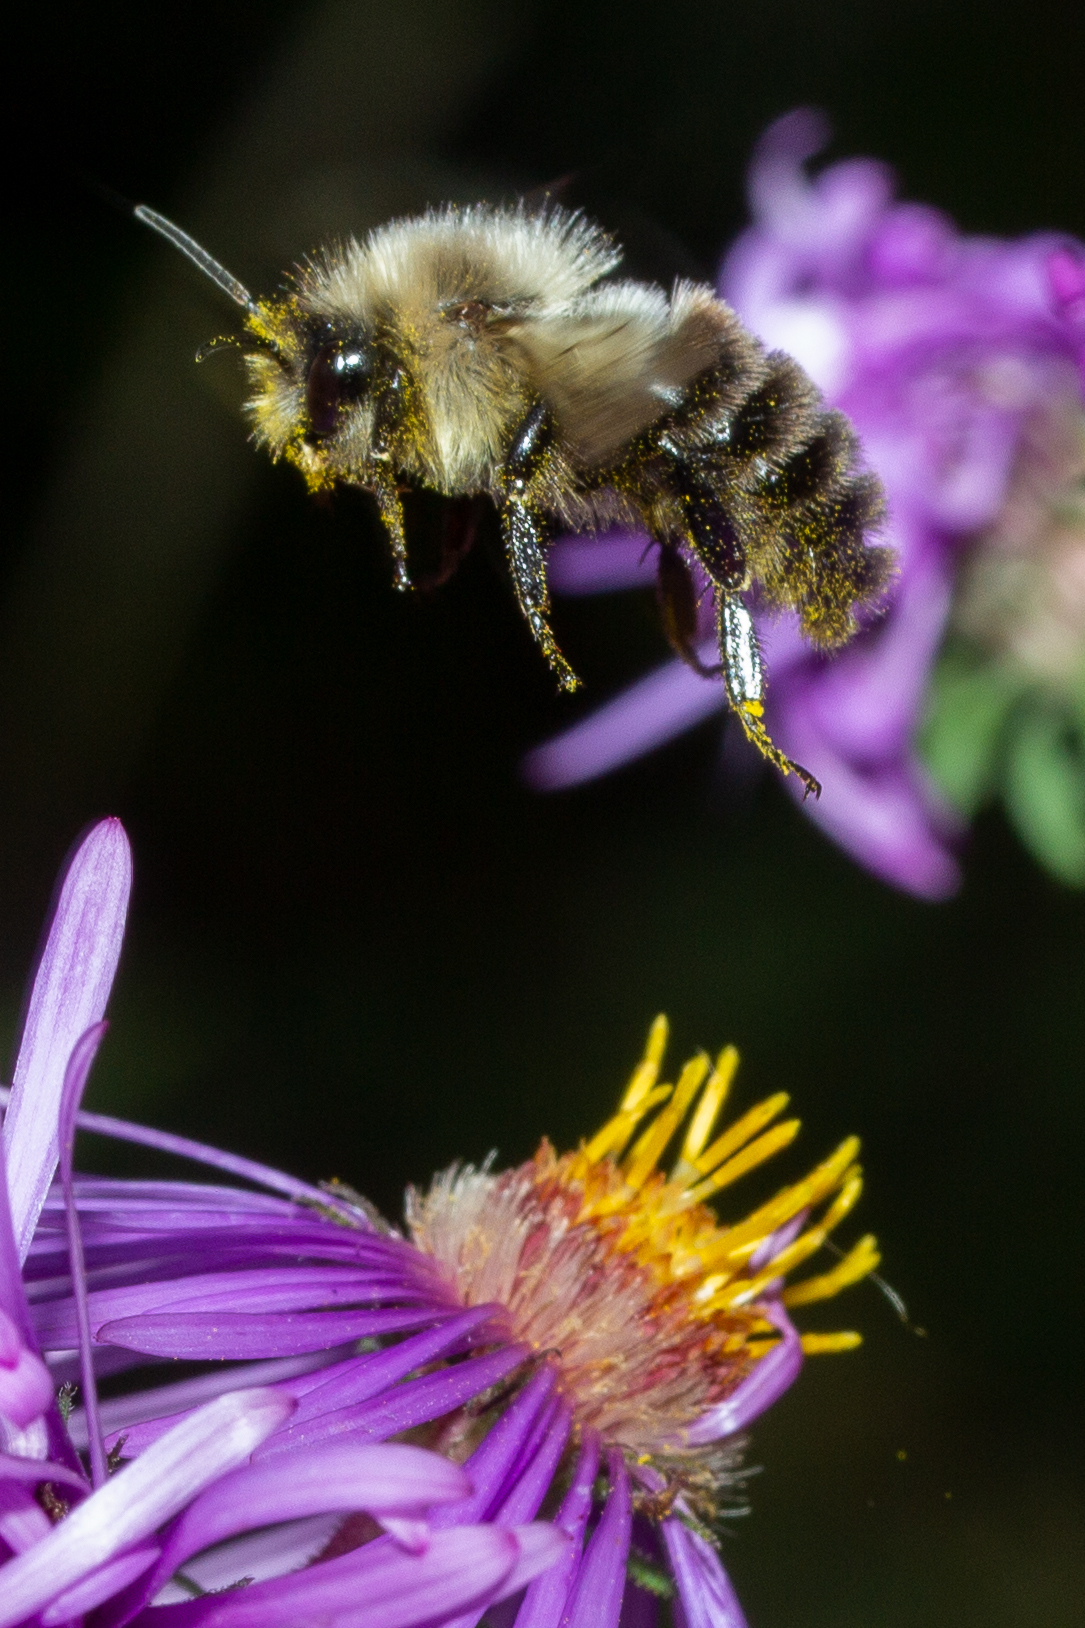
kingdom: Animalia
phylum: Arthropoda
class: Insecta
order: Hymenoptera
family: Apidae
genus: Bombus
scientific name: Bombus impatiens
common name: Common eastern bumble bee
